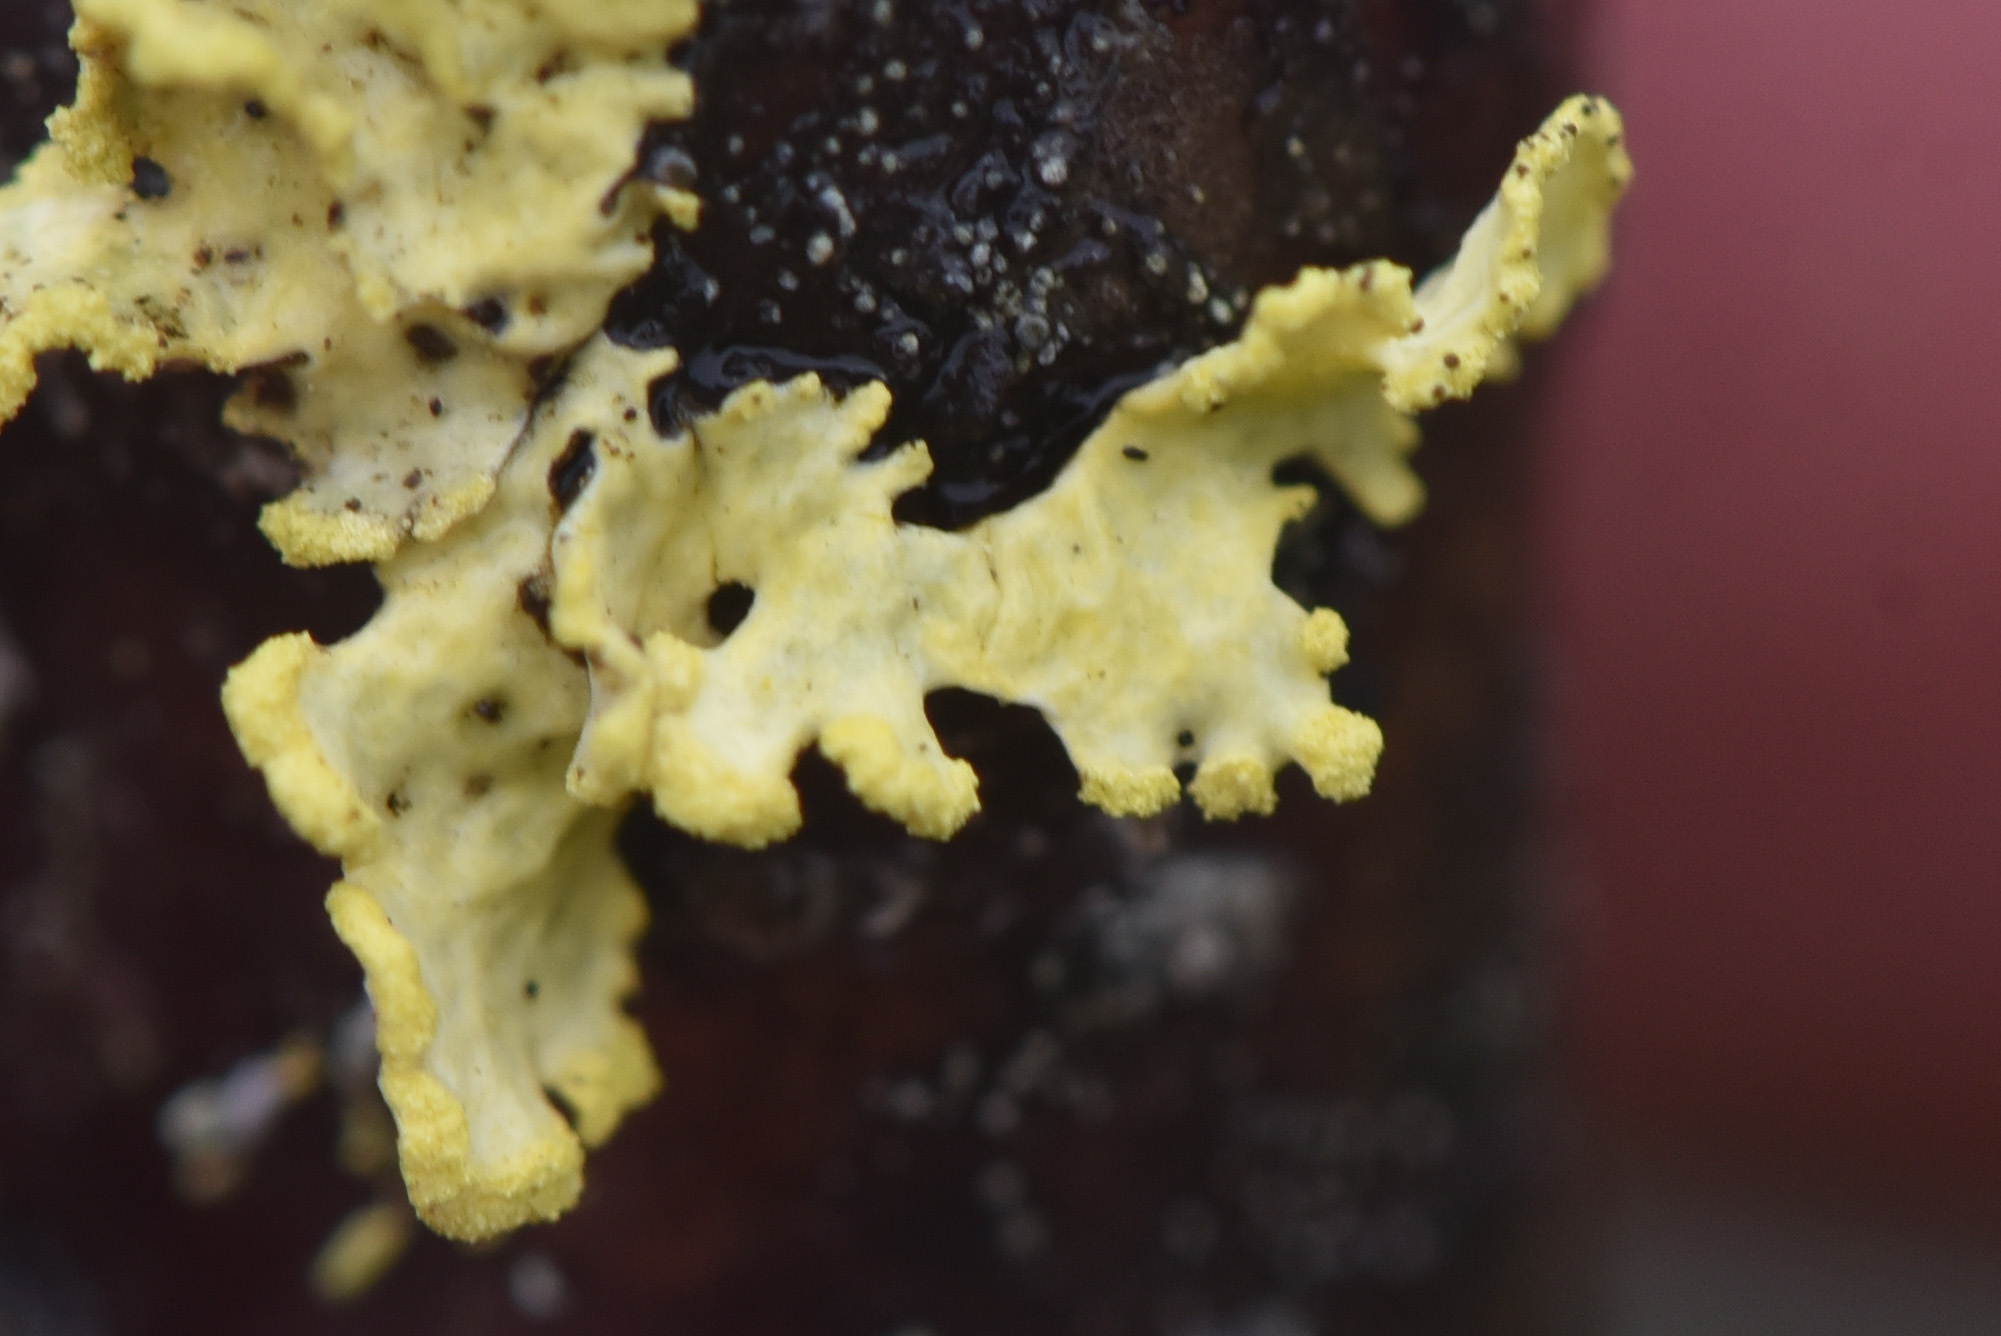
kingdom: Fungi
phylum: Ascomycota
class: Lecanoromycetes
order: Lecanorales
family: Parmeliaceae
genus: Vulpicida
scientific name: Vulpicida pinastri
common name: Powdered sunshine lichen
